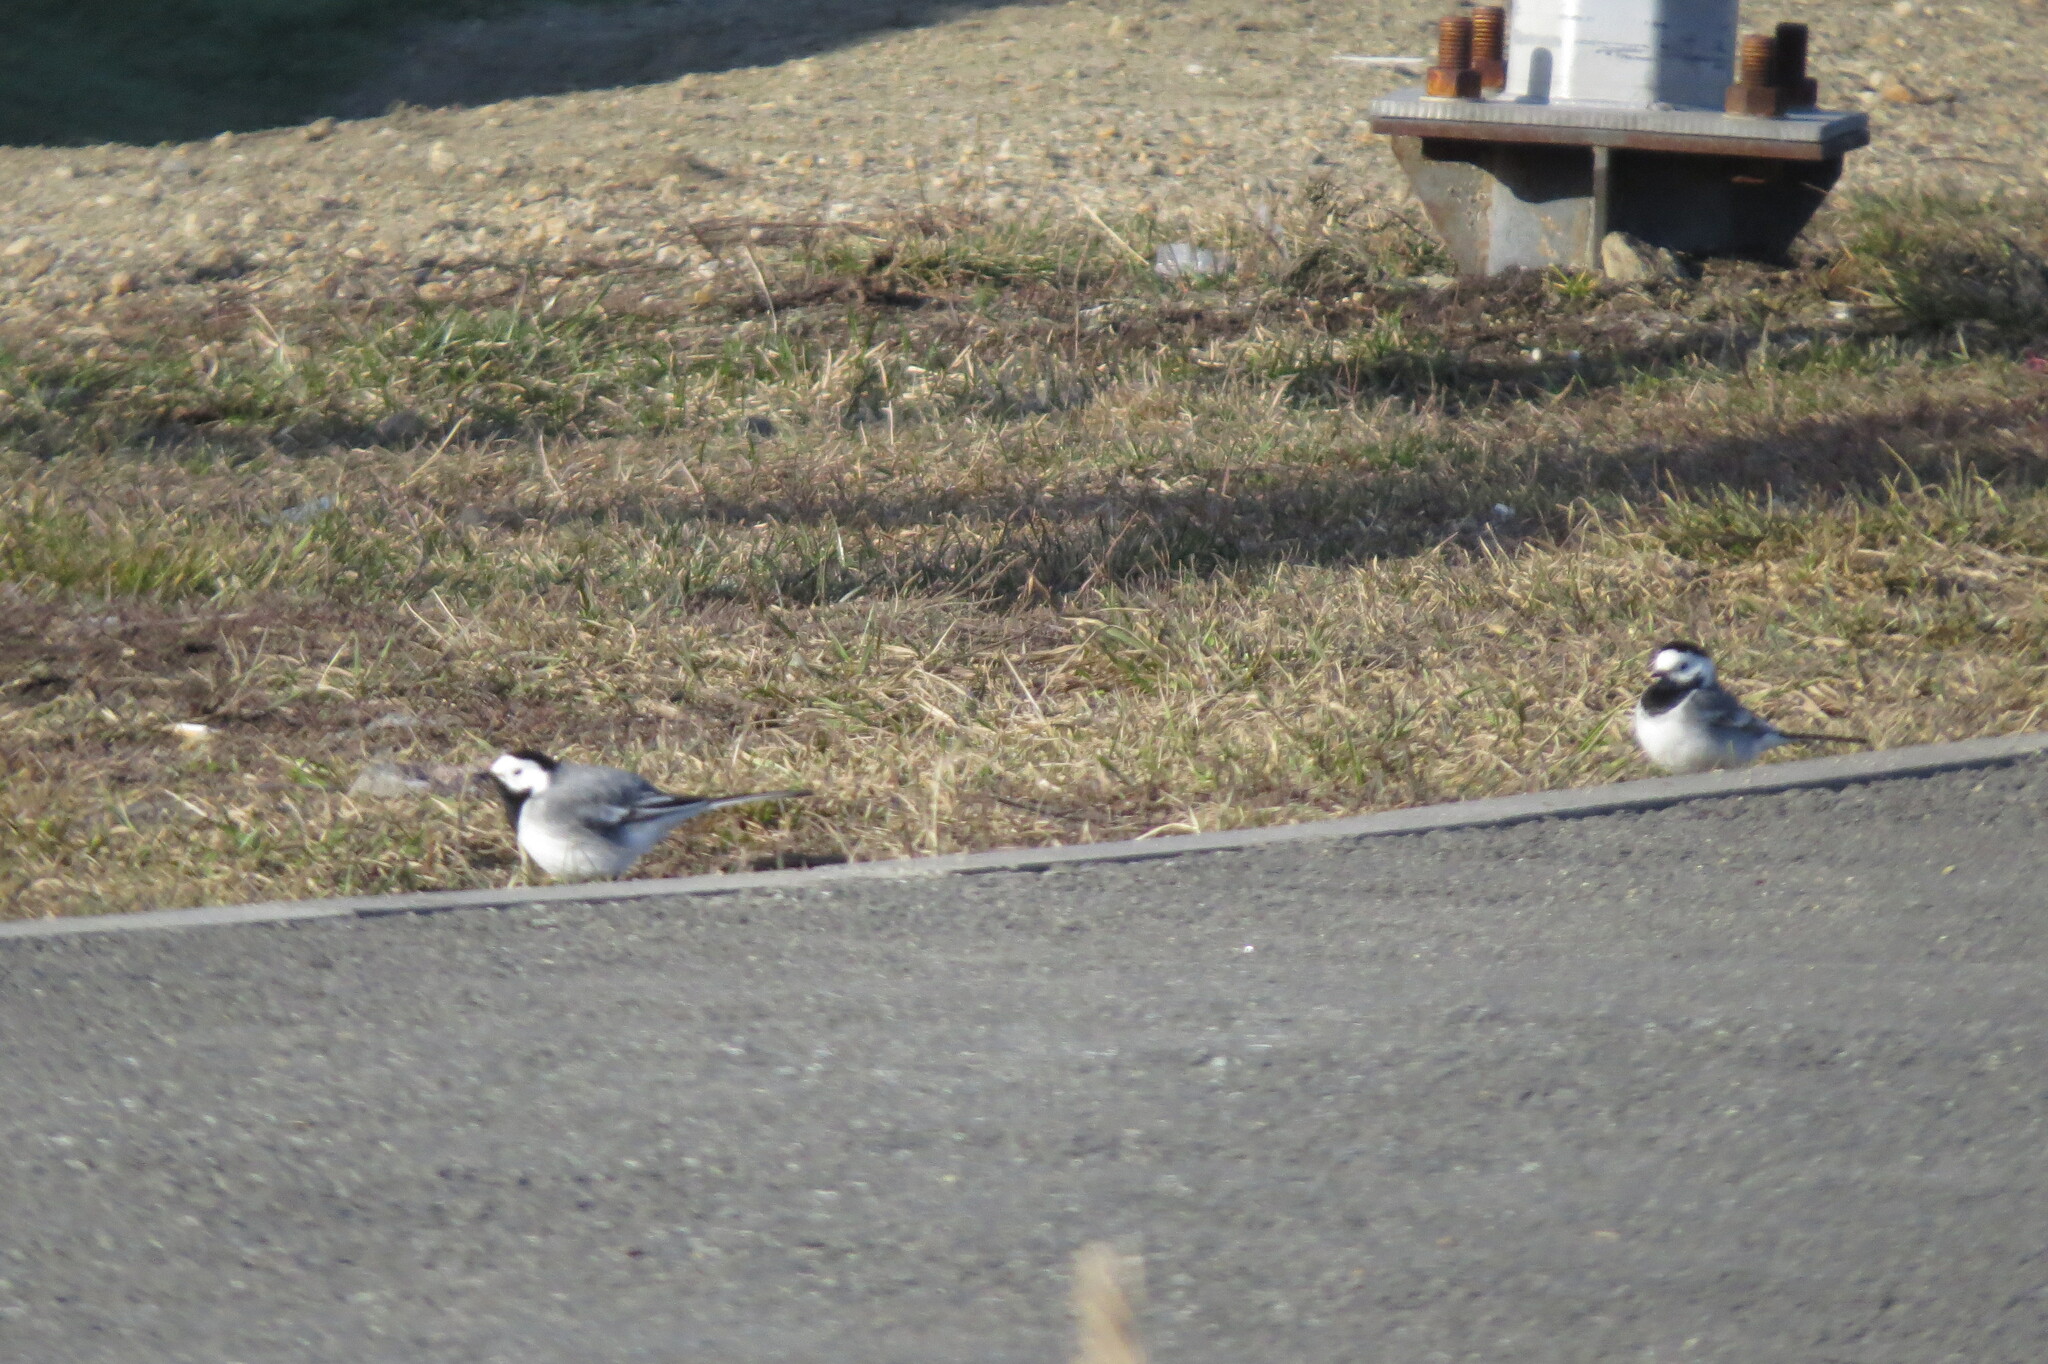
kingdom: Animalia
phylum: Chordata
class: Aves
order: Passeriformes
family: Motacillidae
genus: Motacilla
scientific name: Motacilla alba
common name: White wagtail
